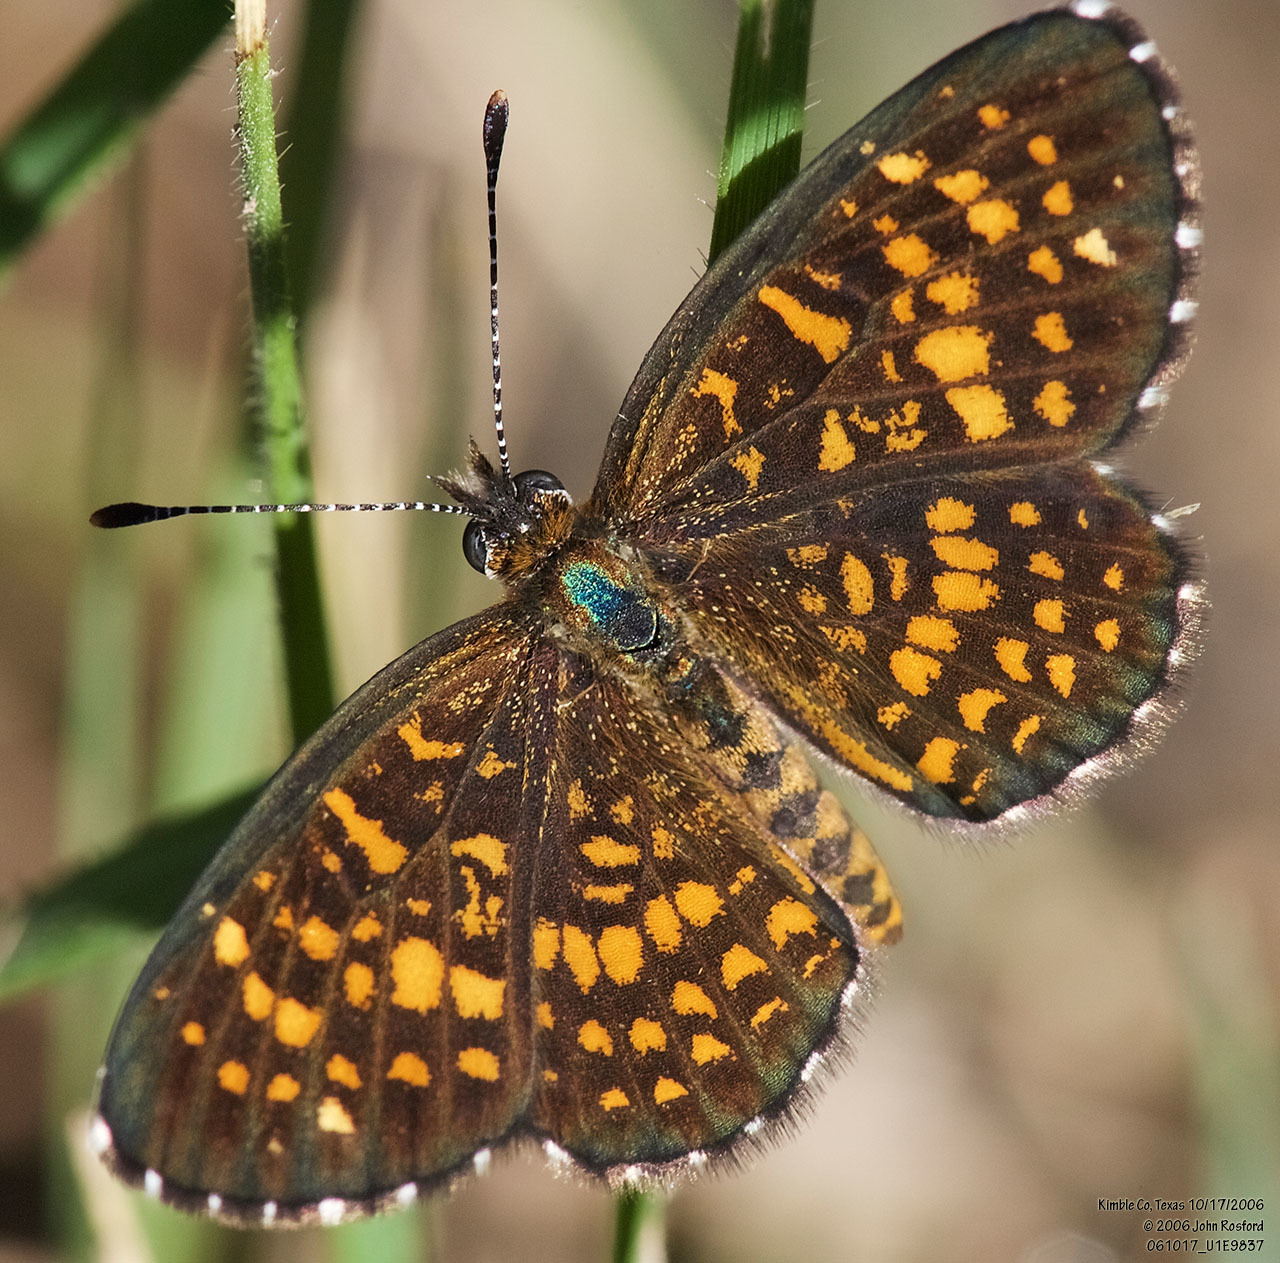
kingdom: Animalia
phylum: Arthropoda
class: Insecta
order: Lepidoptera
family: Nymphalidae
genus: Texola
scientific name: Texola elada
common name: Elada checkerspot
